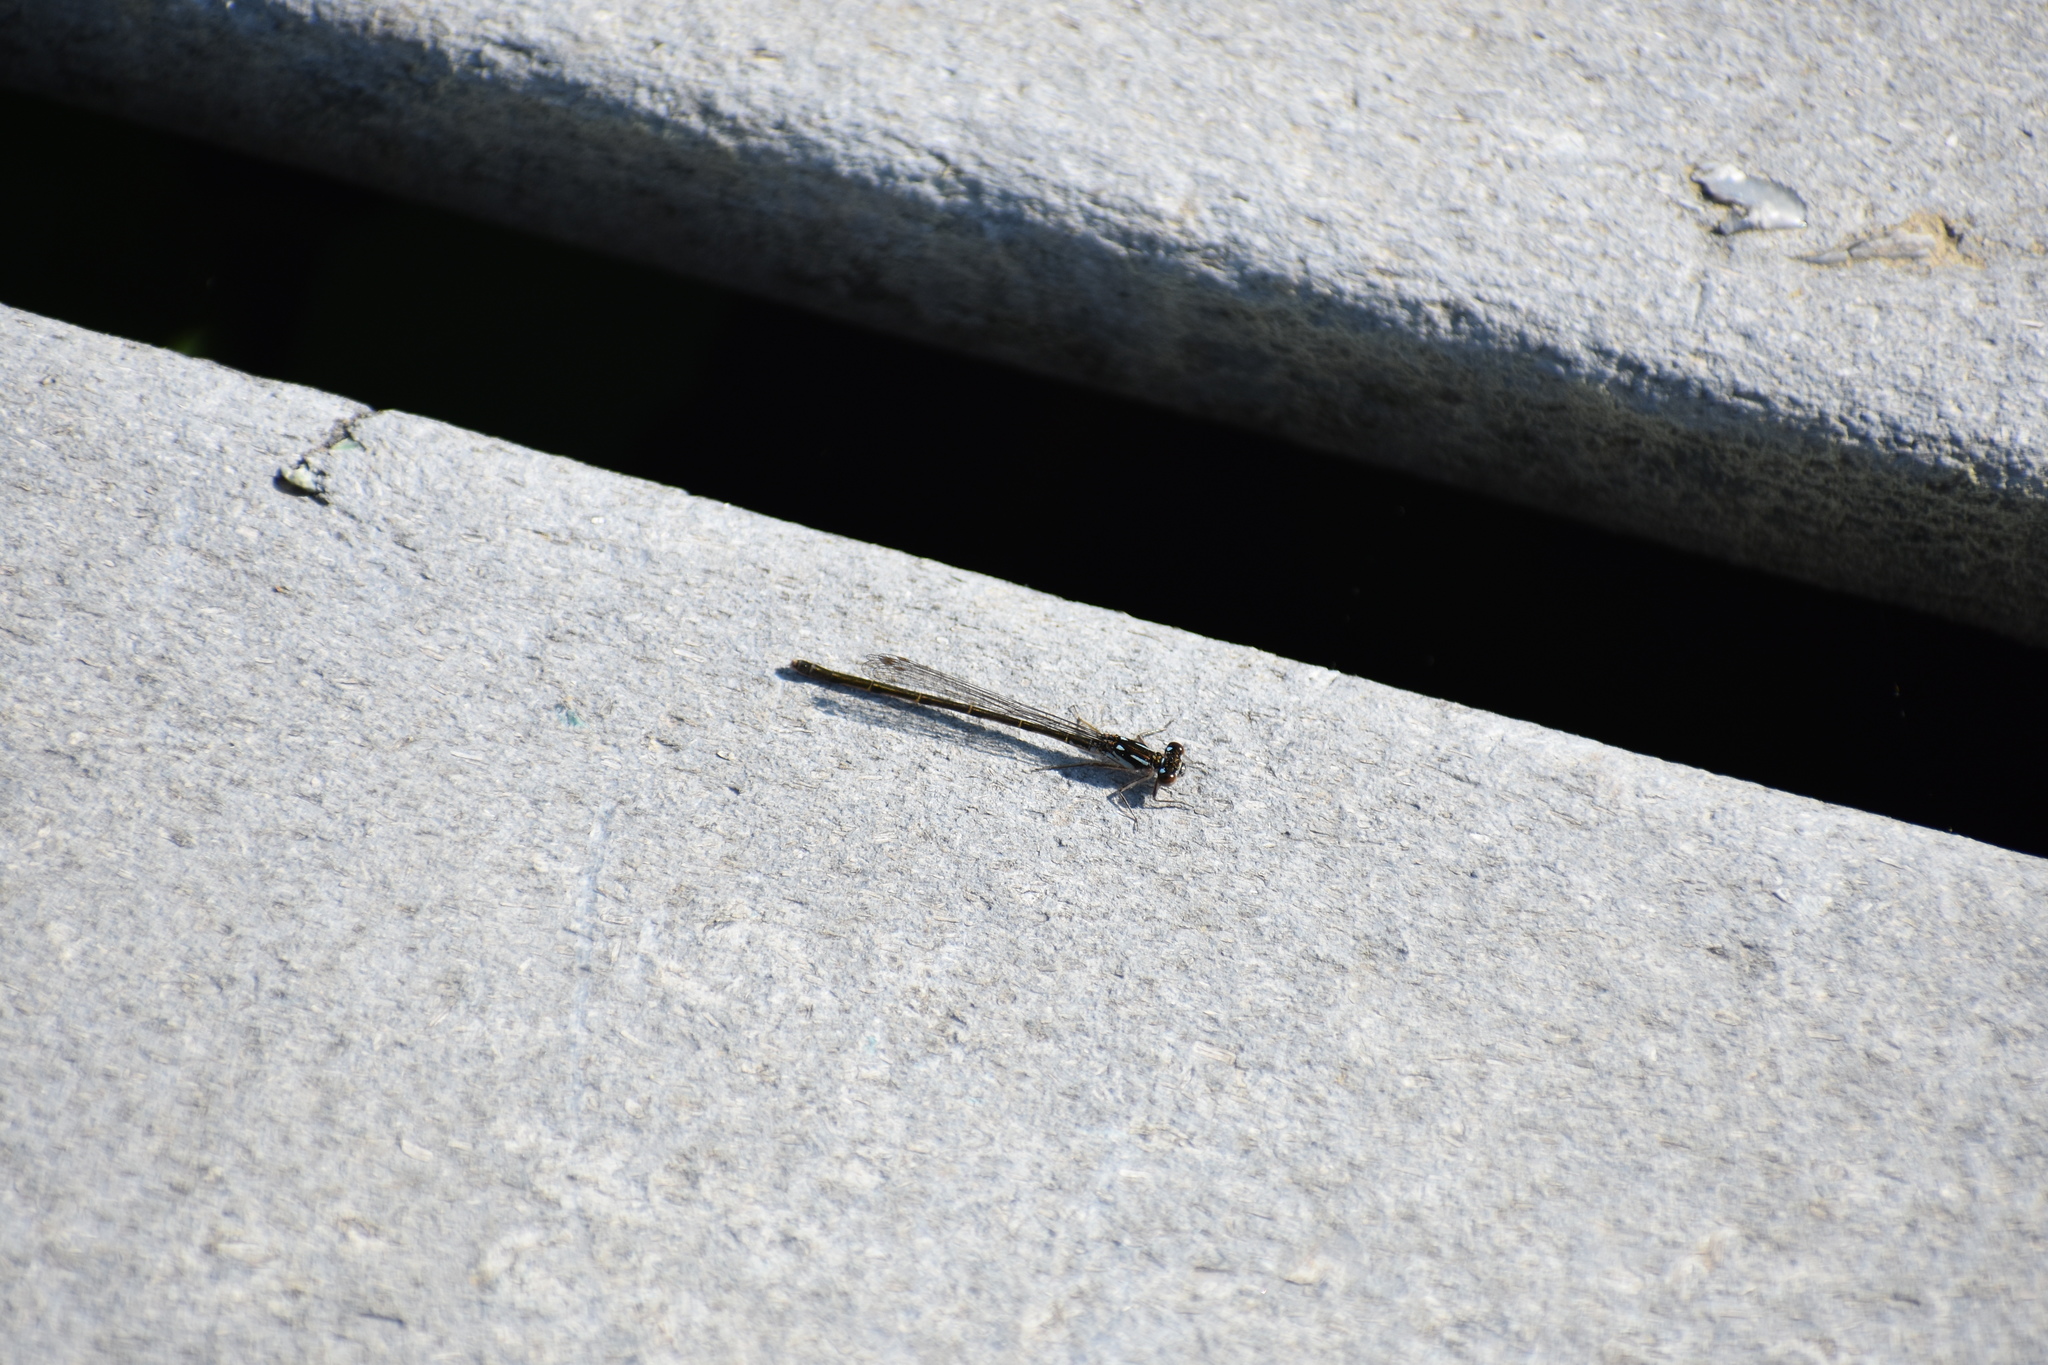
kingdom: Animalia
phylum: Arthropoda
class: Insecta
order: Odonata
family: Coenagrionidae
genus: Ischnura
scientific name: Ischnura posita
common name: Fragile forktail
